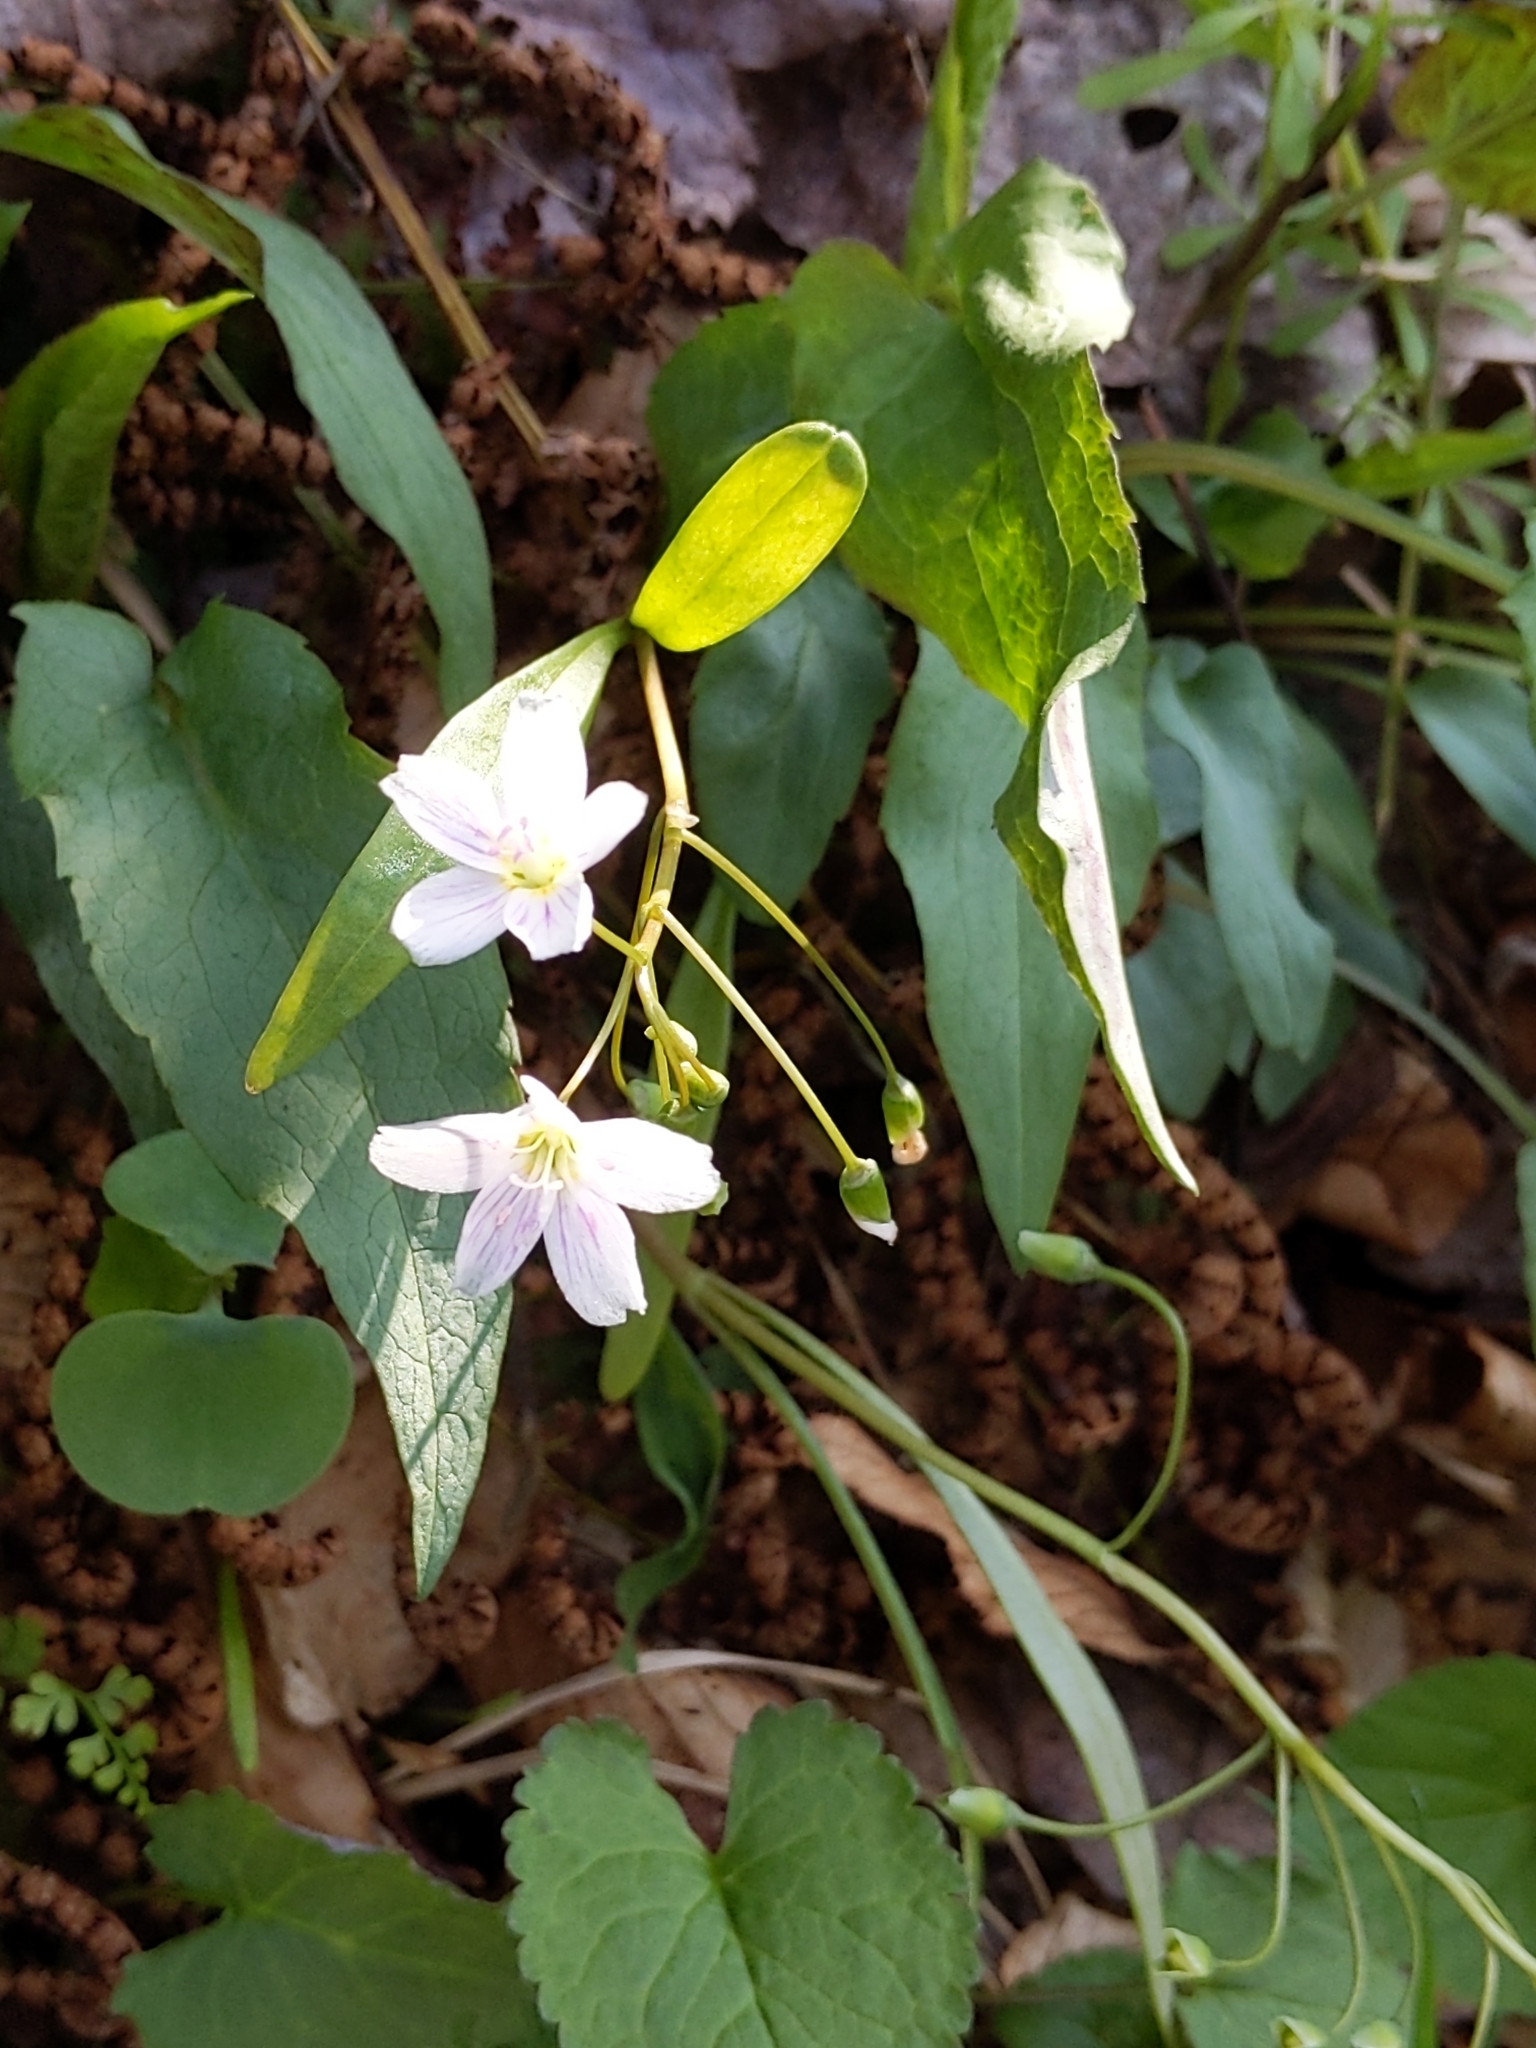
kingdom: Plantae
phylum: Tracheophyta
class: Magnoliopsida
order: Caryophyllales
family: Montiaceae
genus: Claytonia
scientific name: Claytonia virginica
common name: Virginia springbeauty
